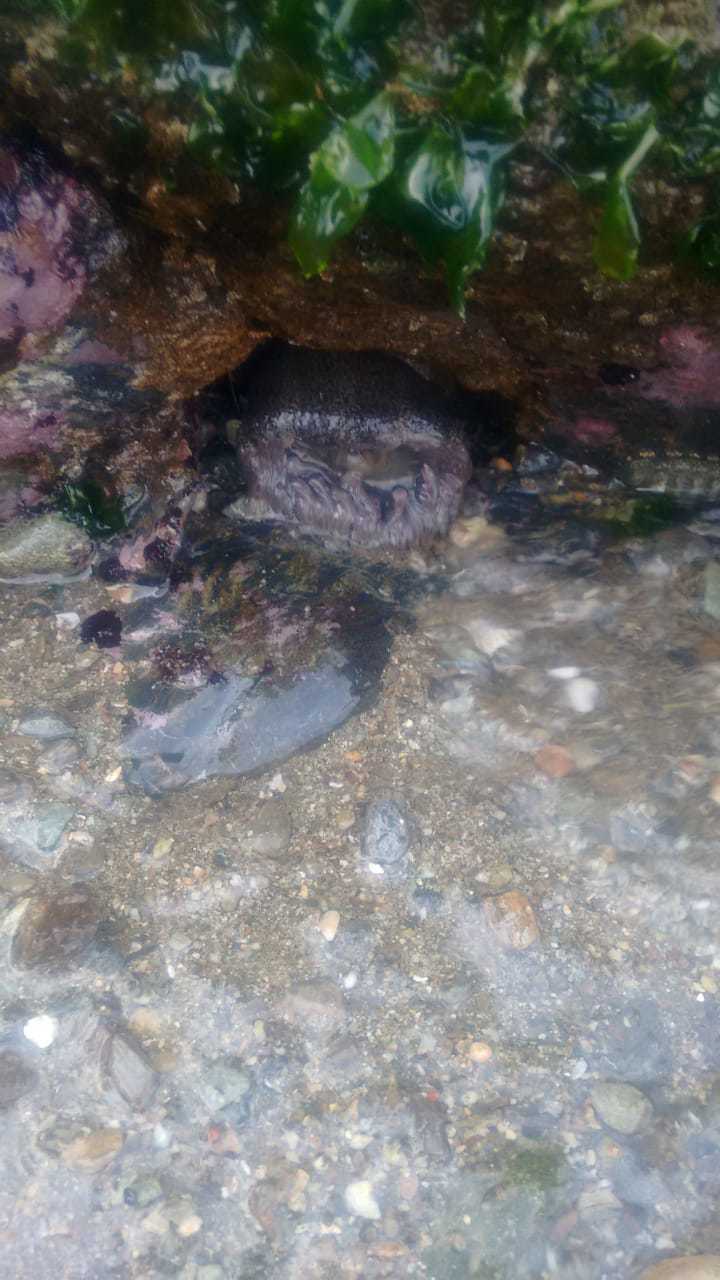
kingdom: Animalia
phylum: Cnidaria
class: Anthozoa
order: Actiniaria
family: Actiniidae
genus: Bunodosoma
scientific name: Bunodosoma granuliferum
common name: Red warty anemone
